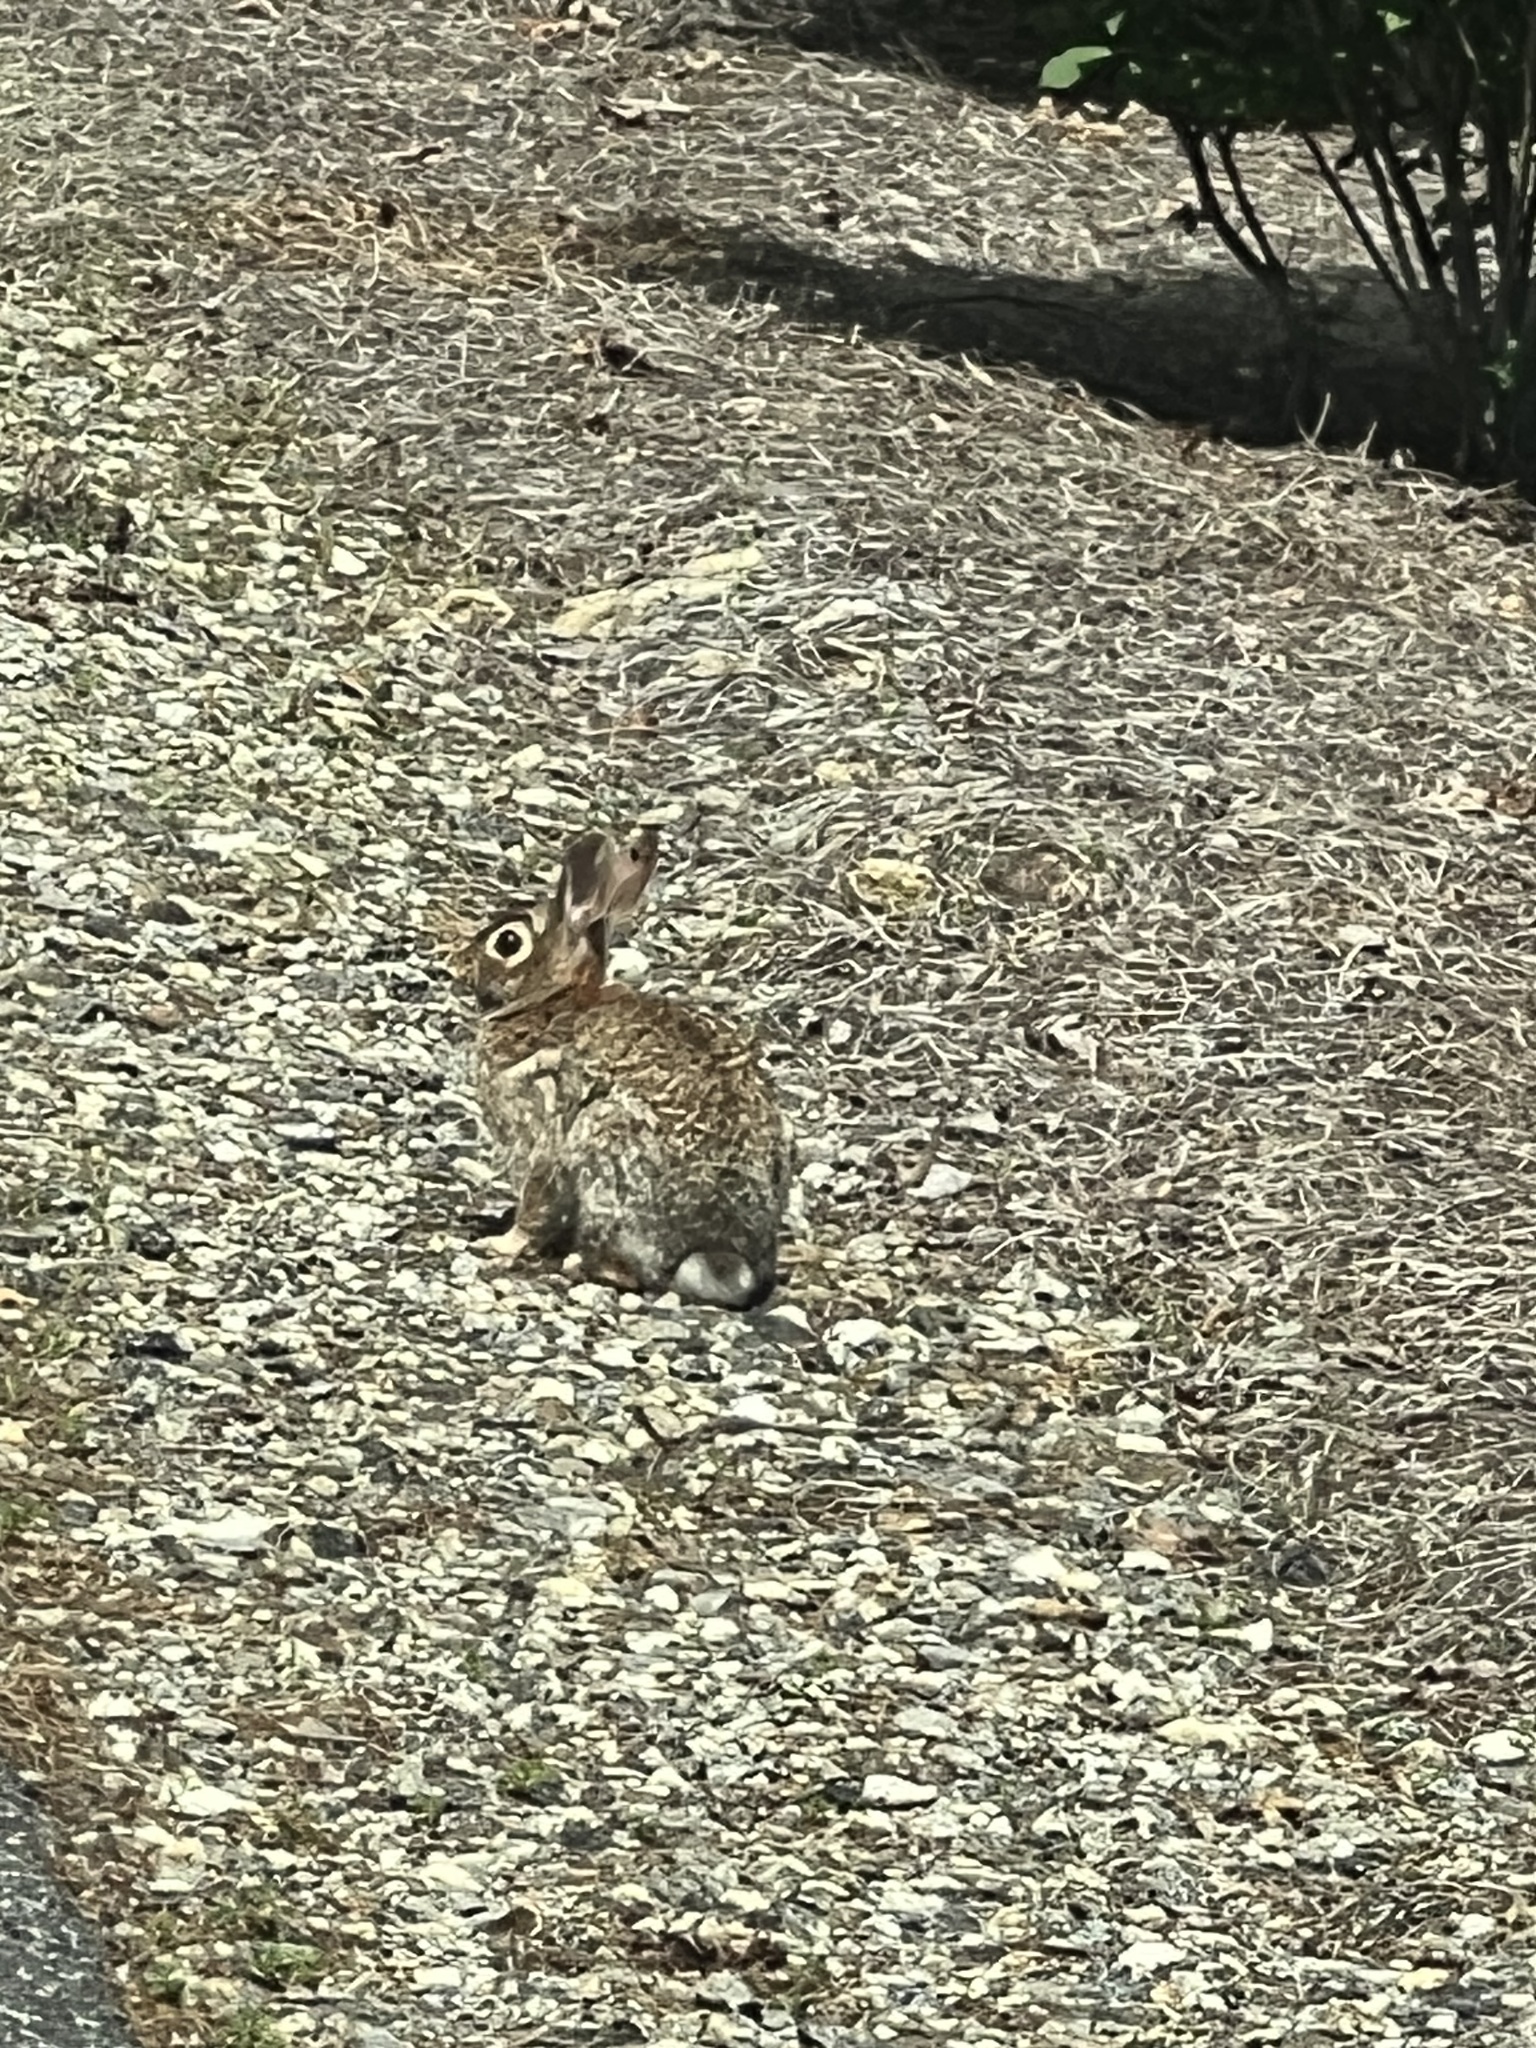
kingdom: Animalia
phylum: Chordata
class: Mammalia
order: Lagomorpha
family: Leporidae
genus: Sylvilagus
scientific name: Sylvilagus floridanus
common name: Eastern cottontail
